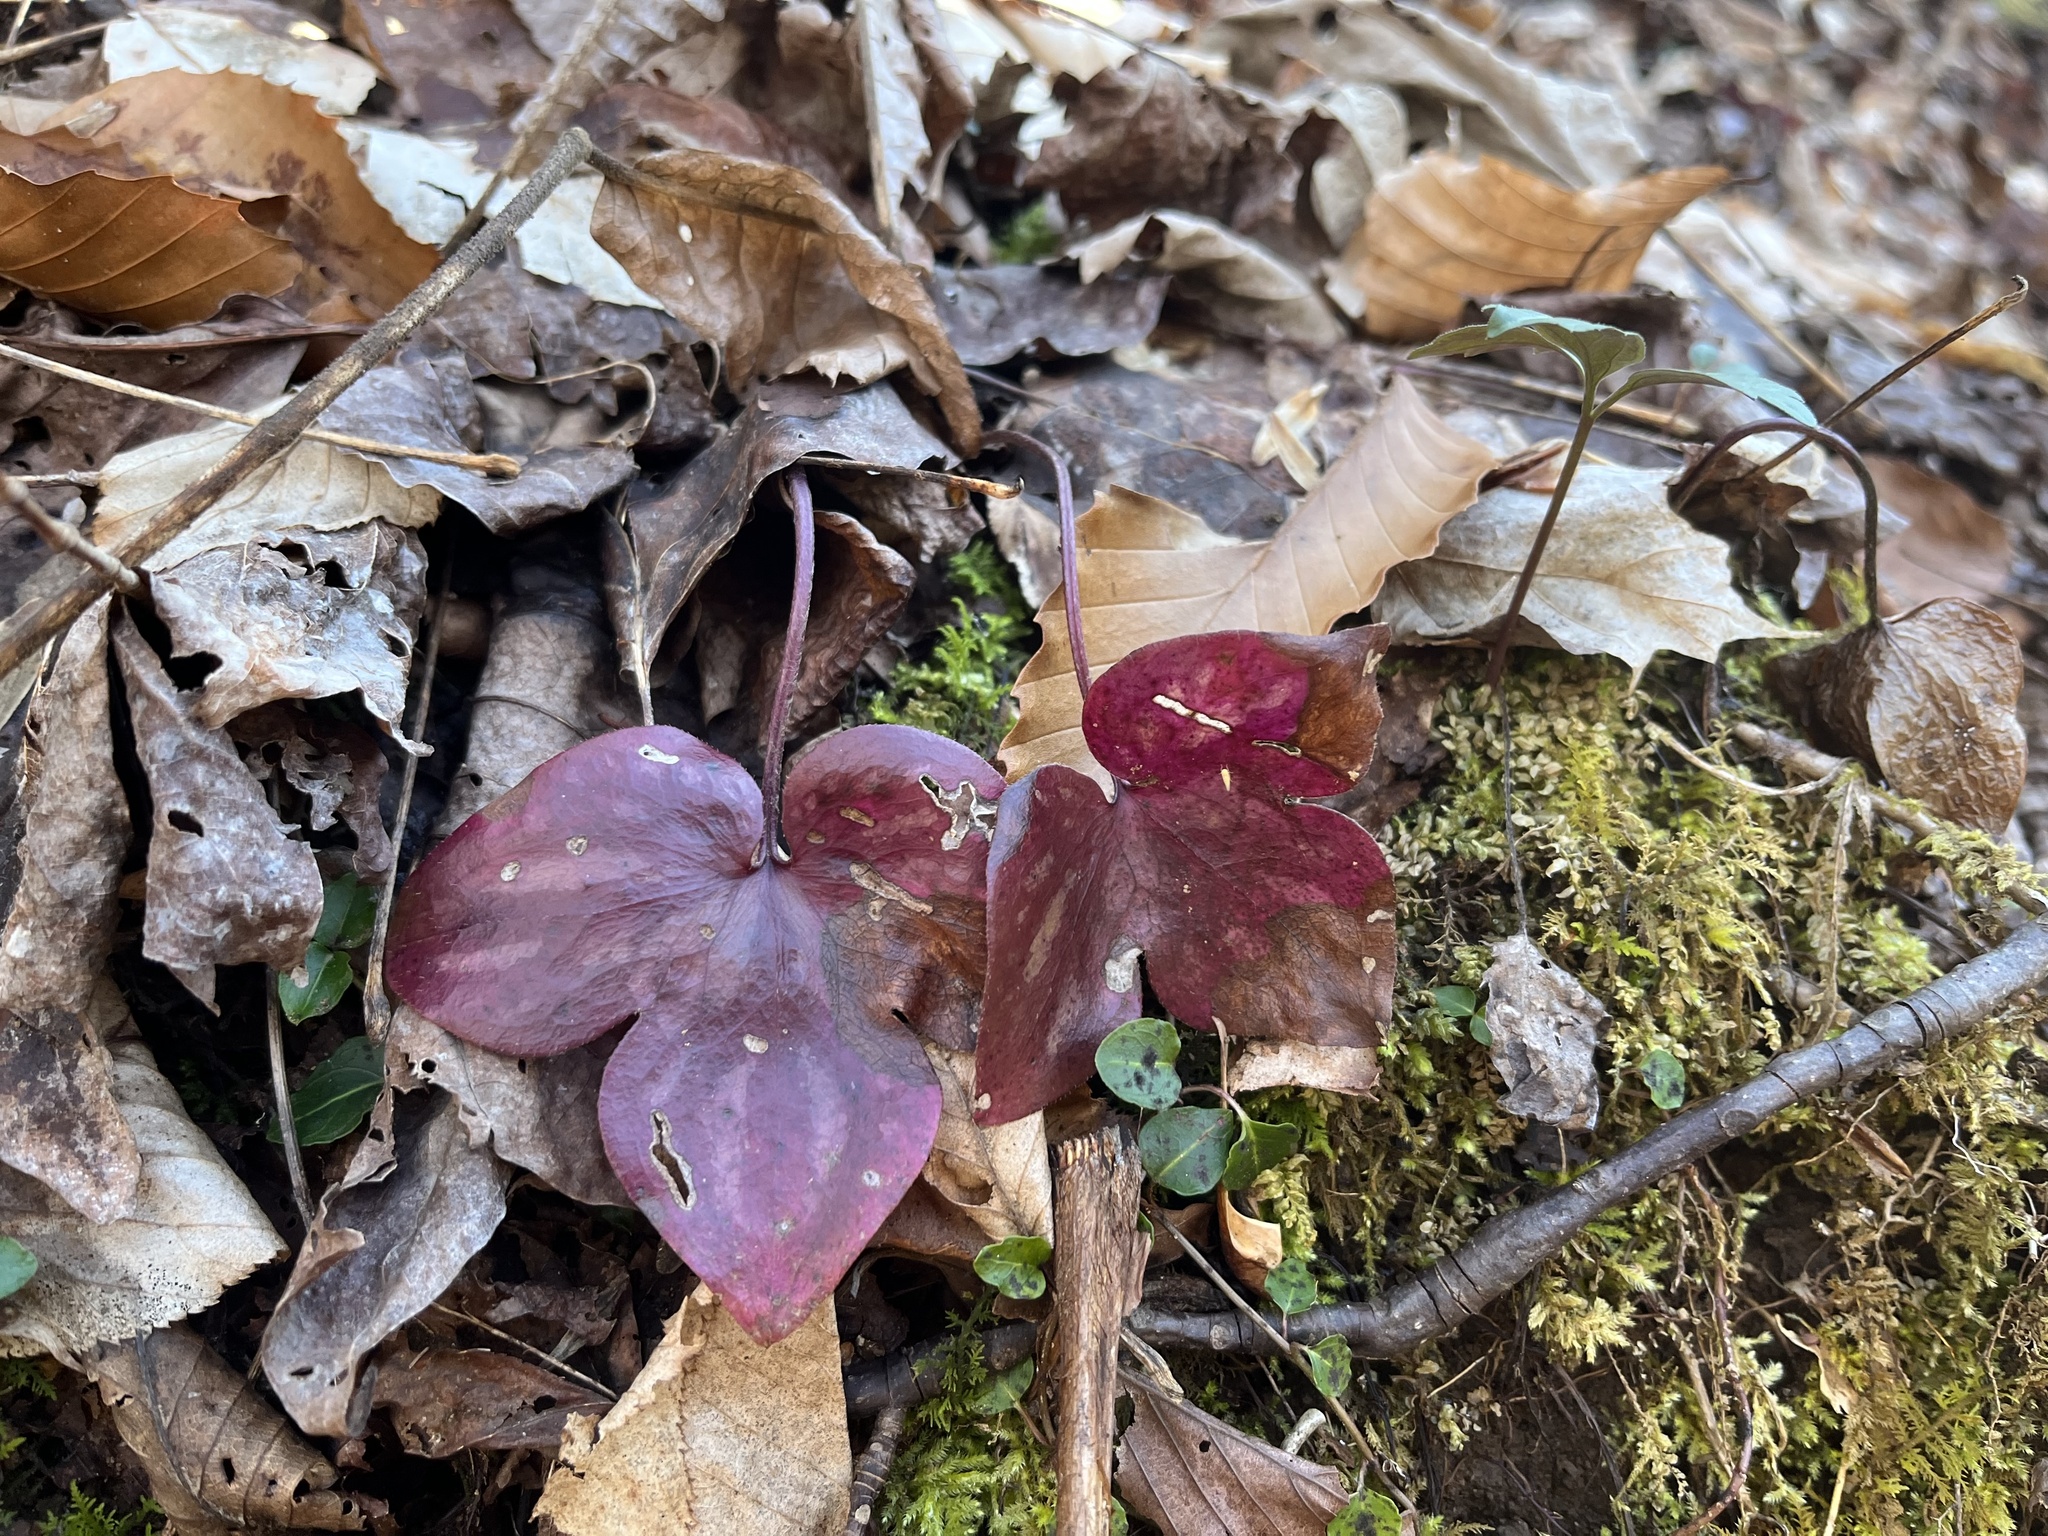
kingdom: Plantae
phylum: Tracheophyta
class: Magnoliopsida
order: Ranunculales
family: Ranunculaceae
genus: Hepatica
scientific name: Hepatica acutiloba
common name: Sharp-lobed hepatica
